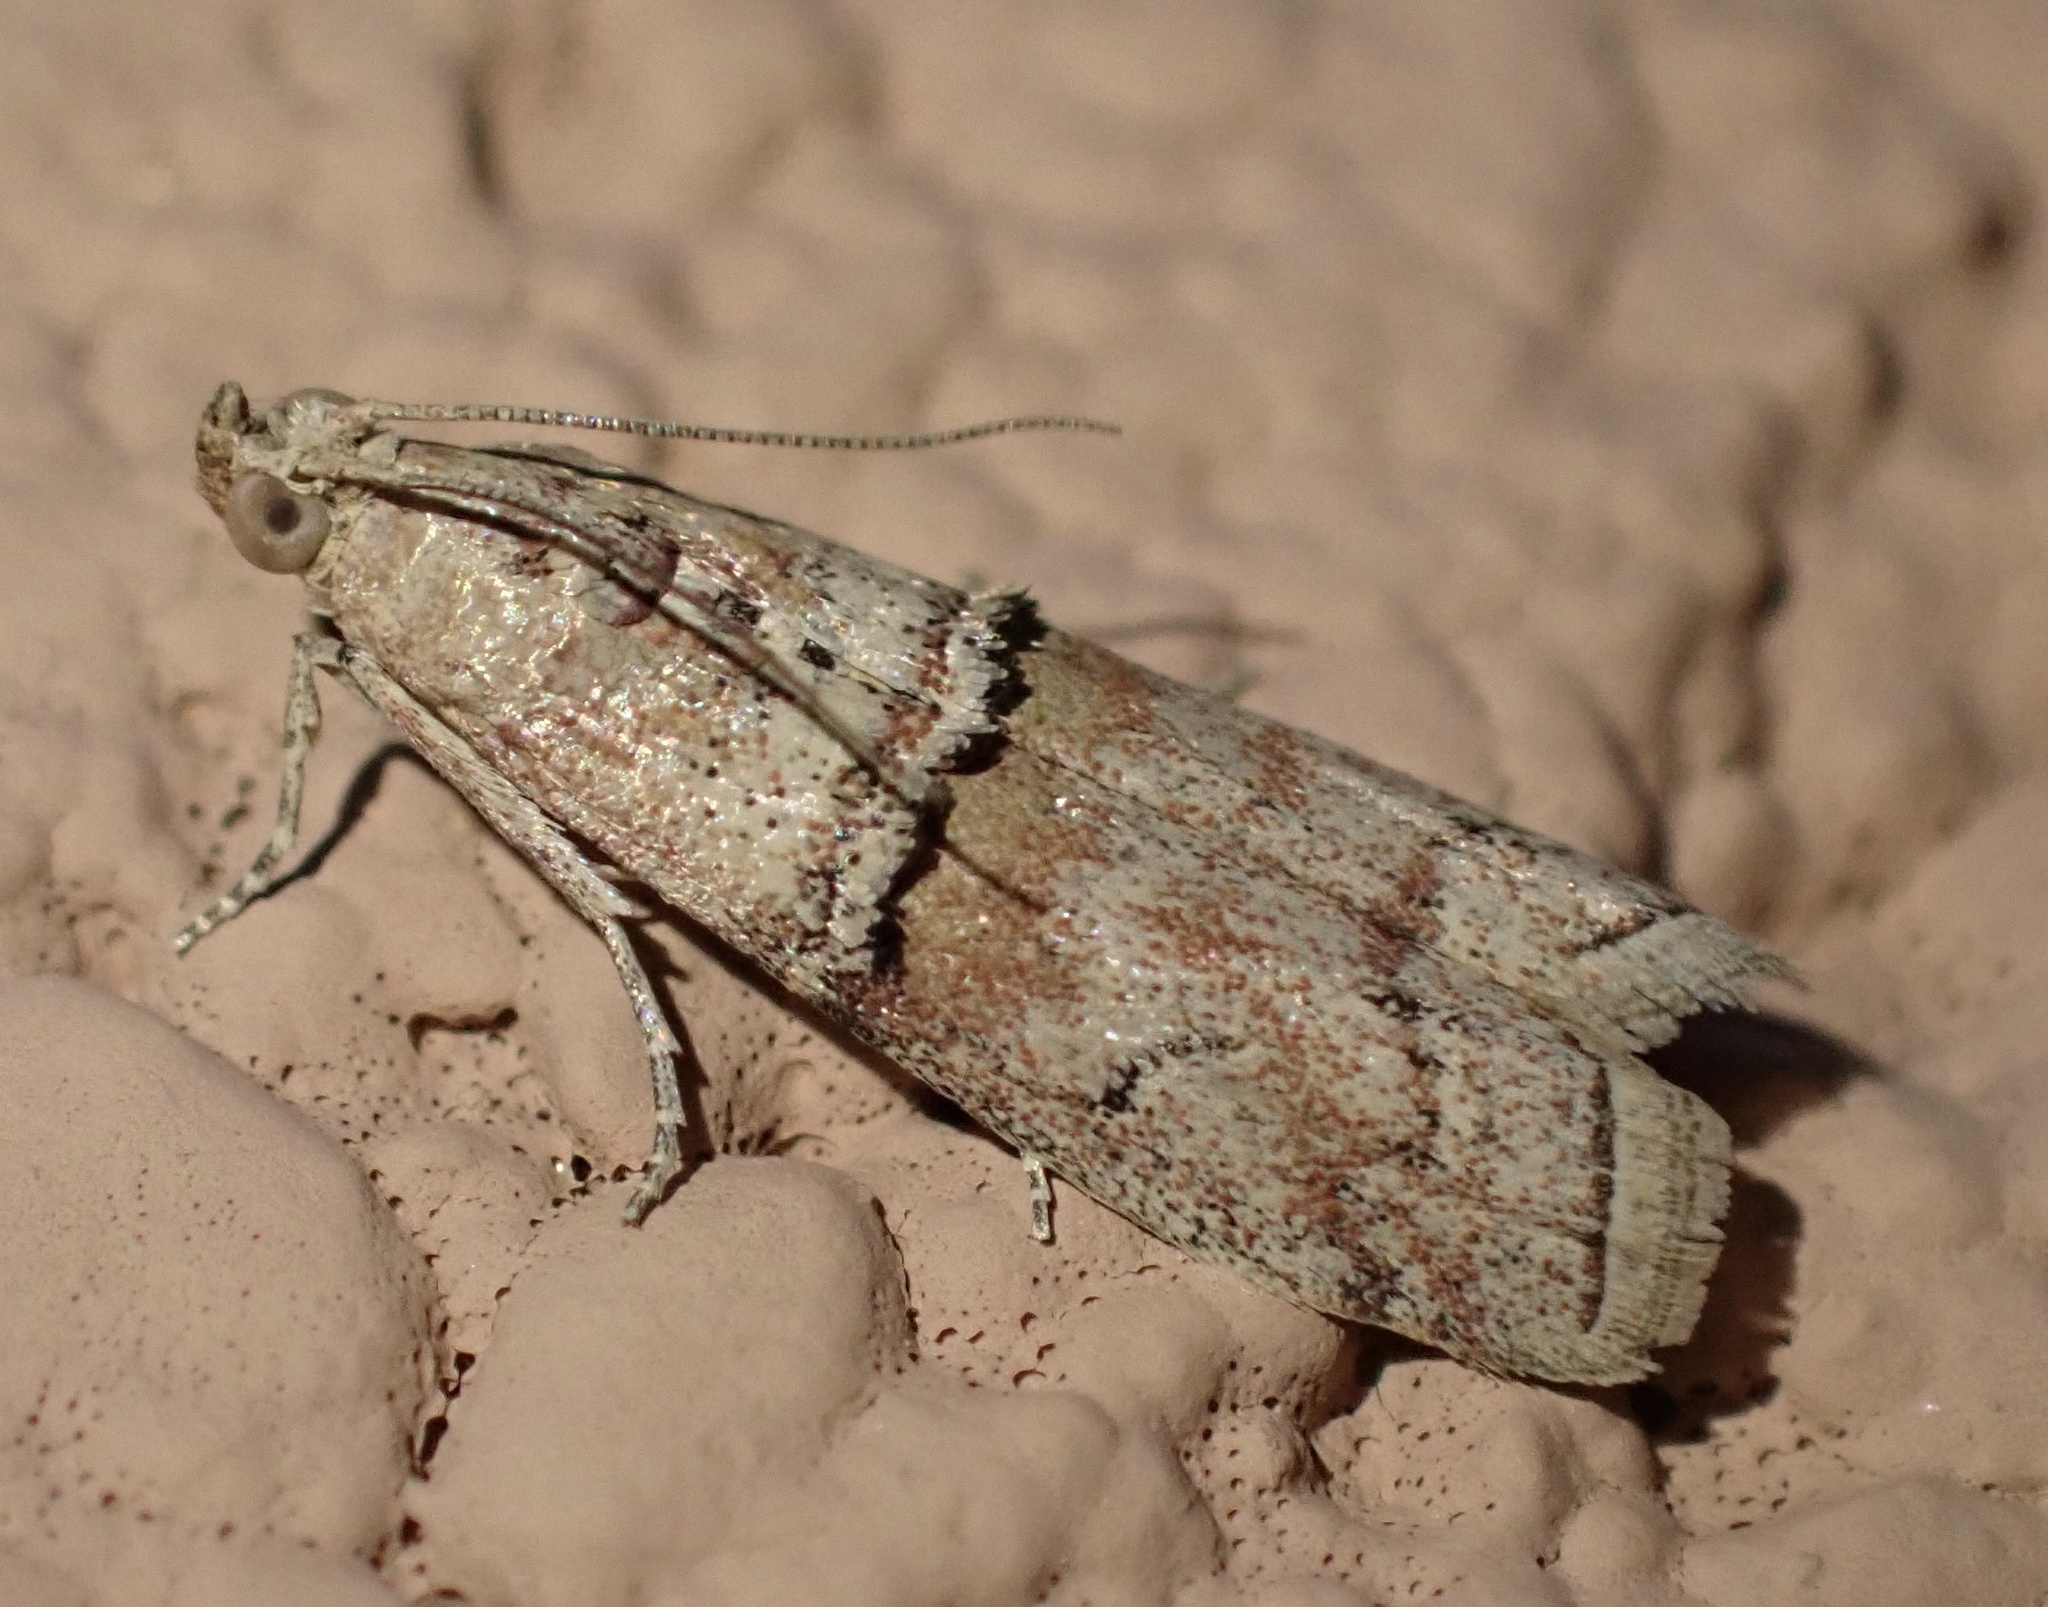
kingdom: Animalia
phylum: Arthropoda
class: Insecta
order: Lepidoptera
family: Pyralidae
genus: Pempelia
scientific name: Pempelia turturella
